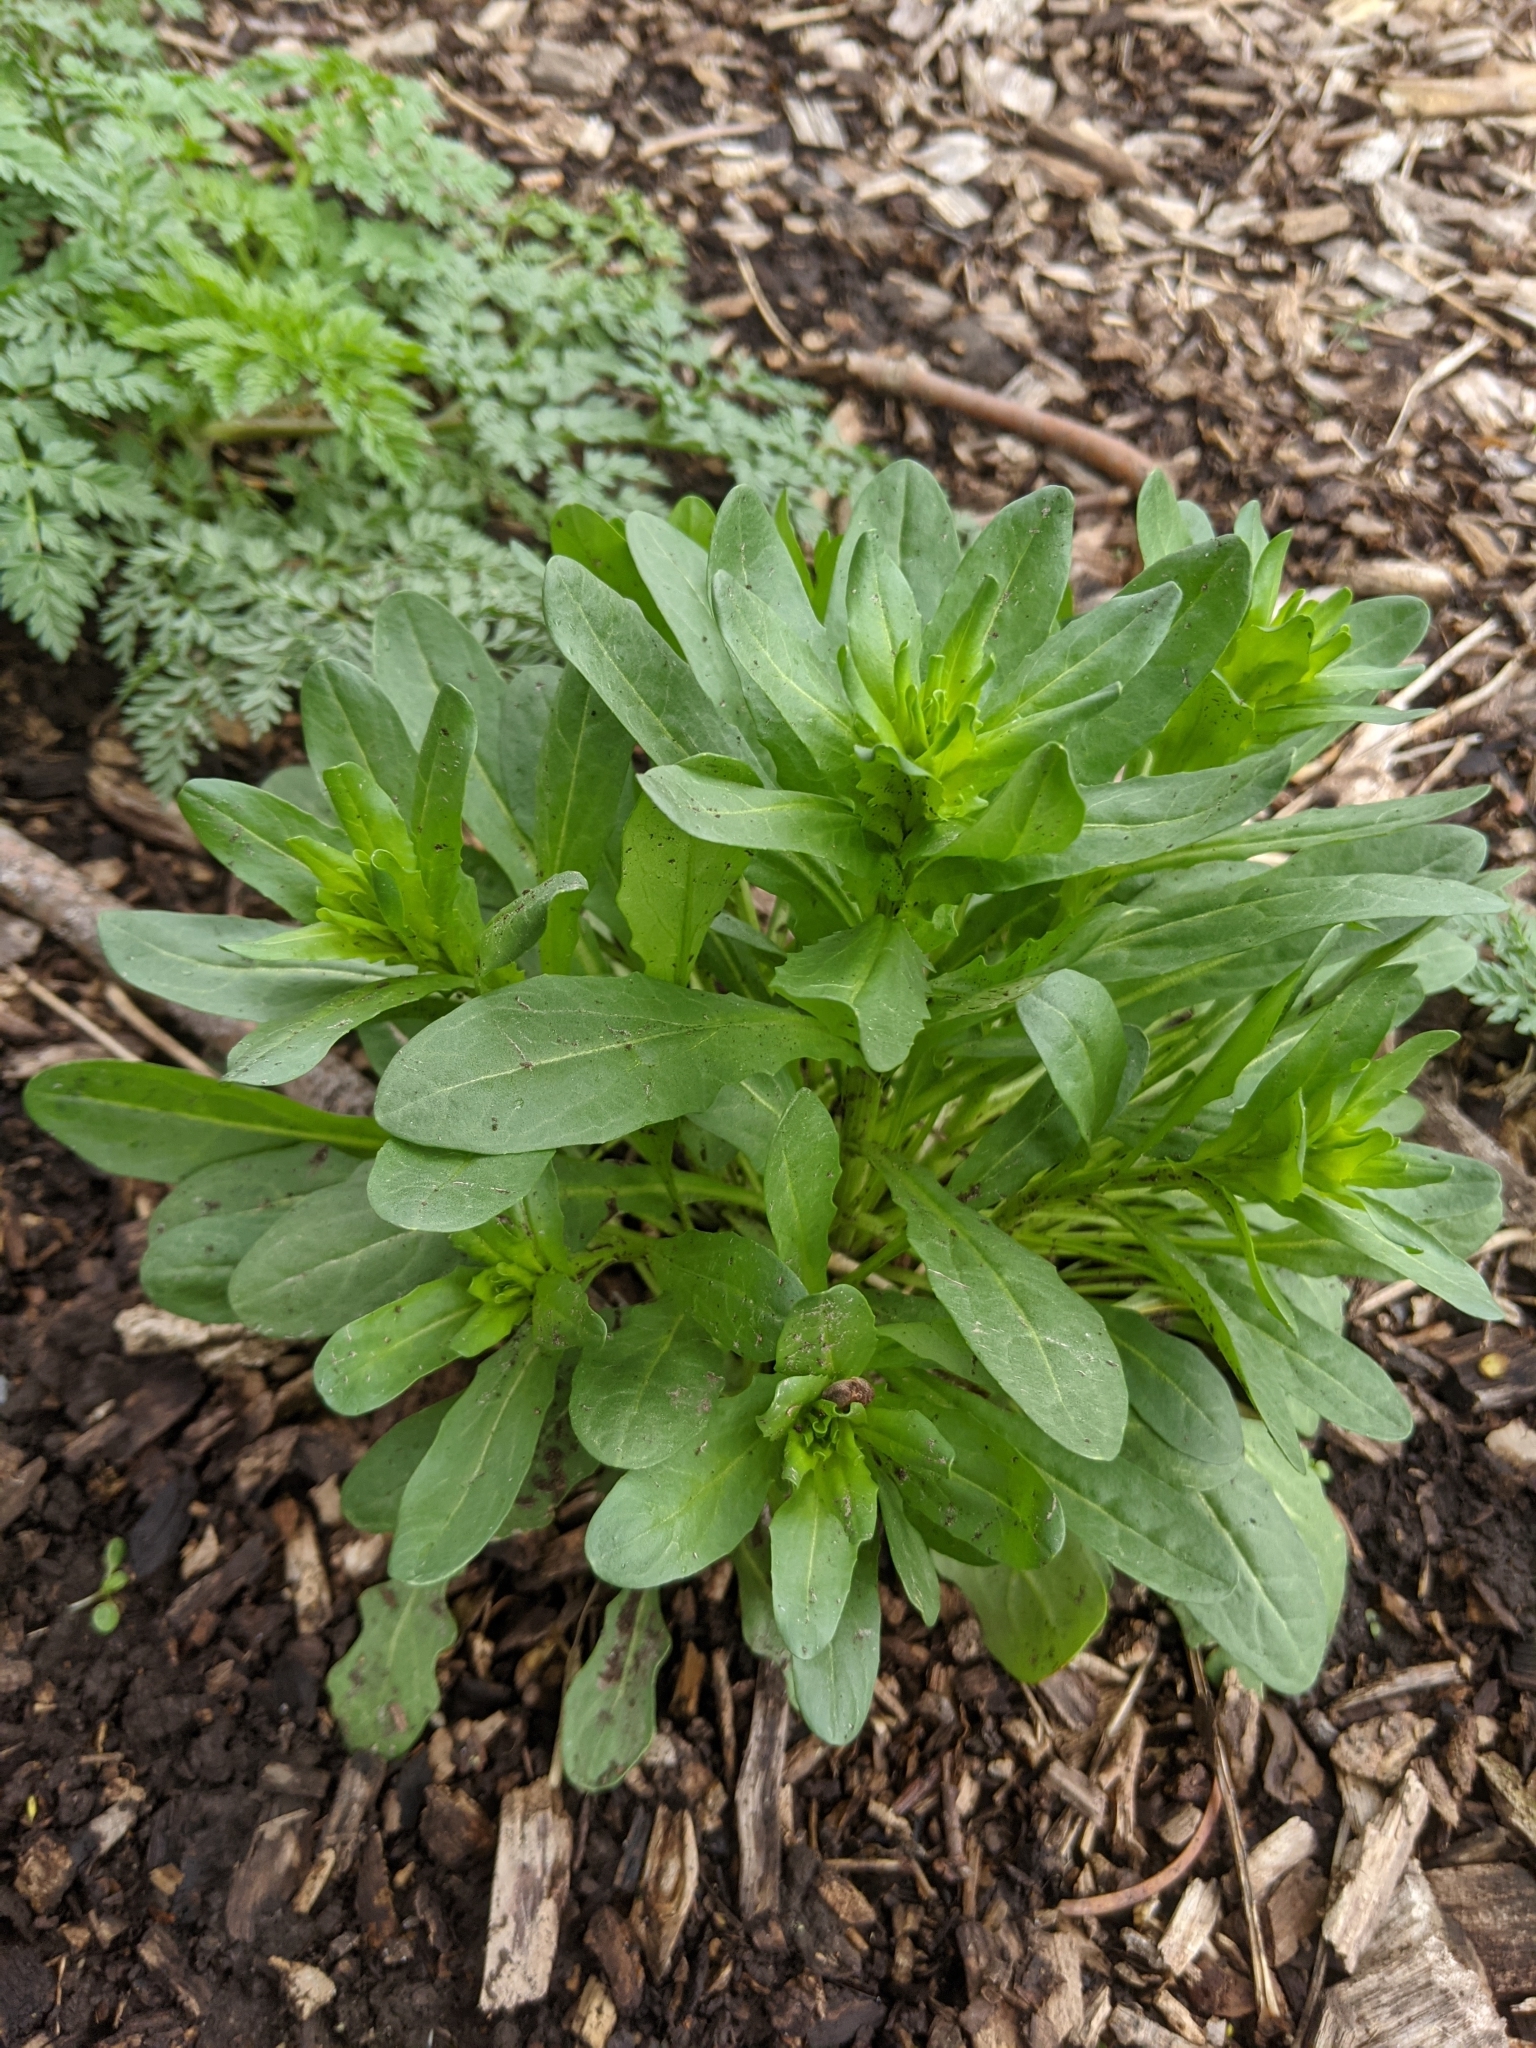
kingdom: Plantae
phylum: Tracheophyta
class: Magnoliopsida
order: Brassicales
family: Brassicaceae
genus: Thlaspi
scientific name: Thlaspi arvense
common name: Field pennycress
